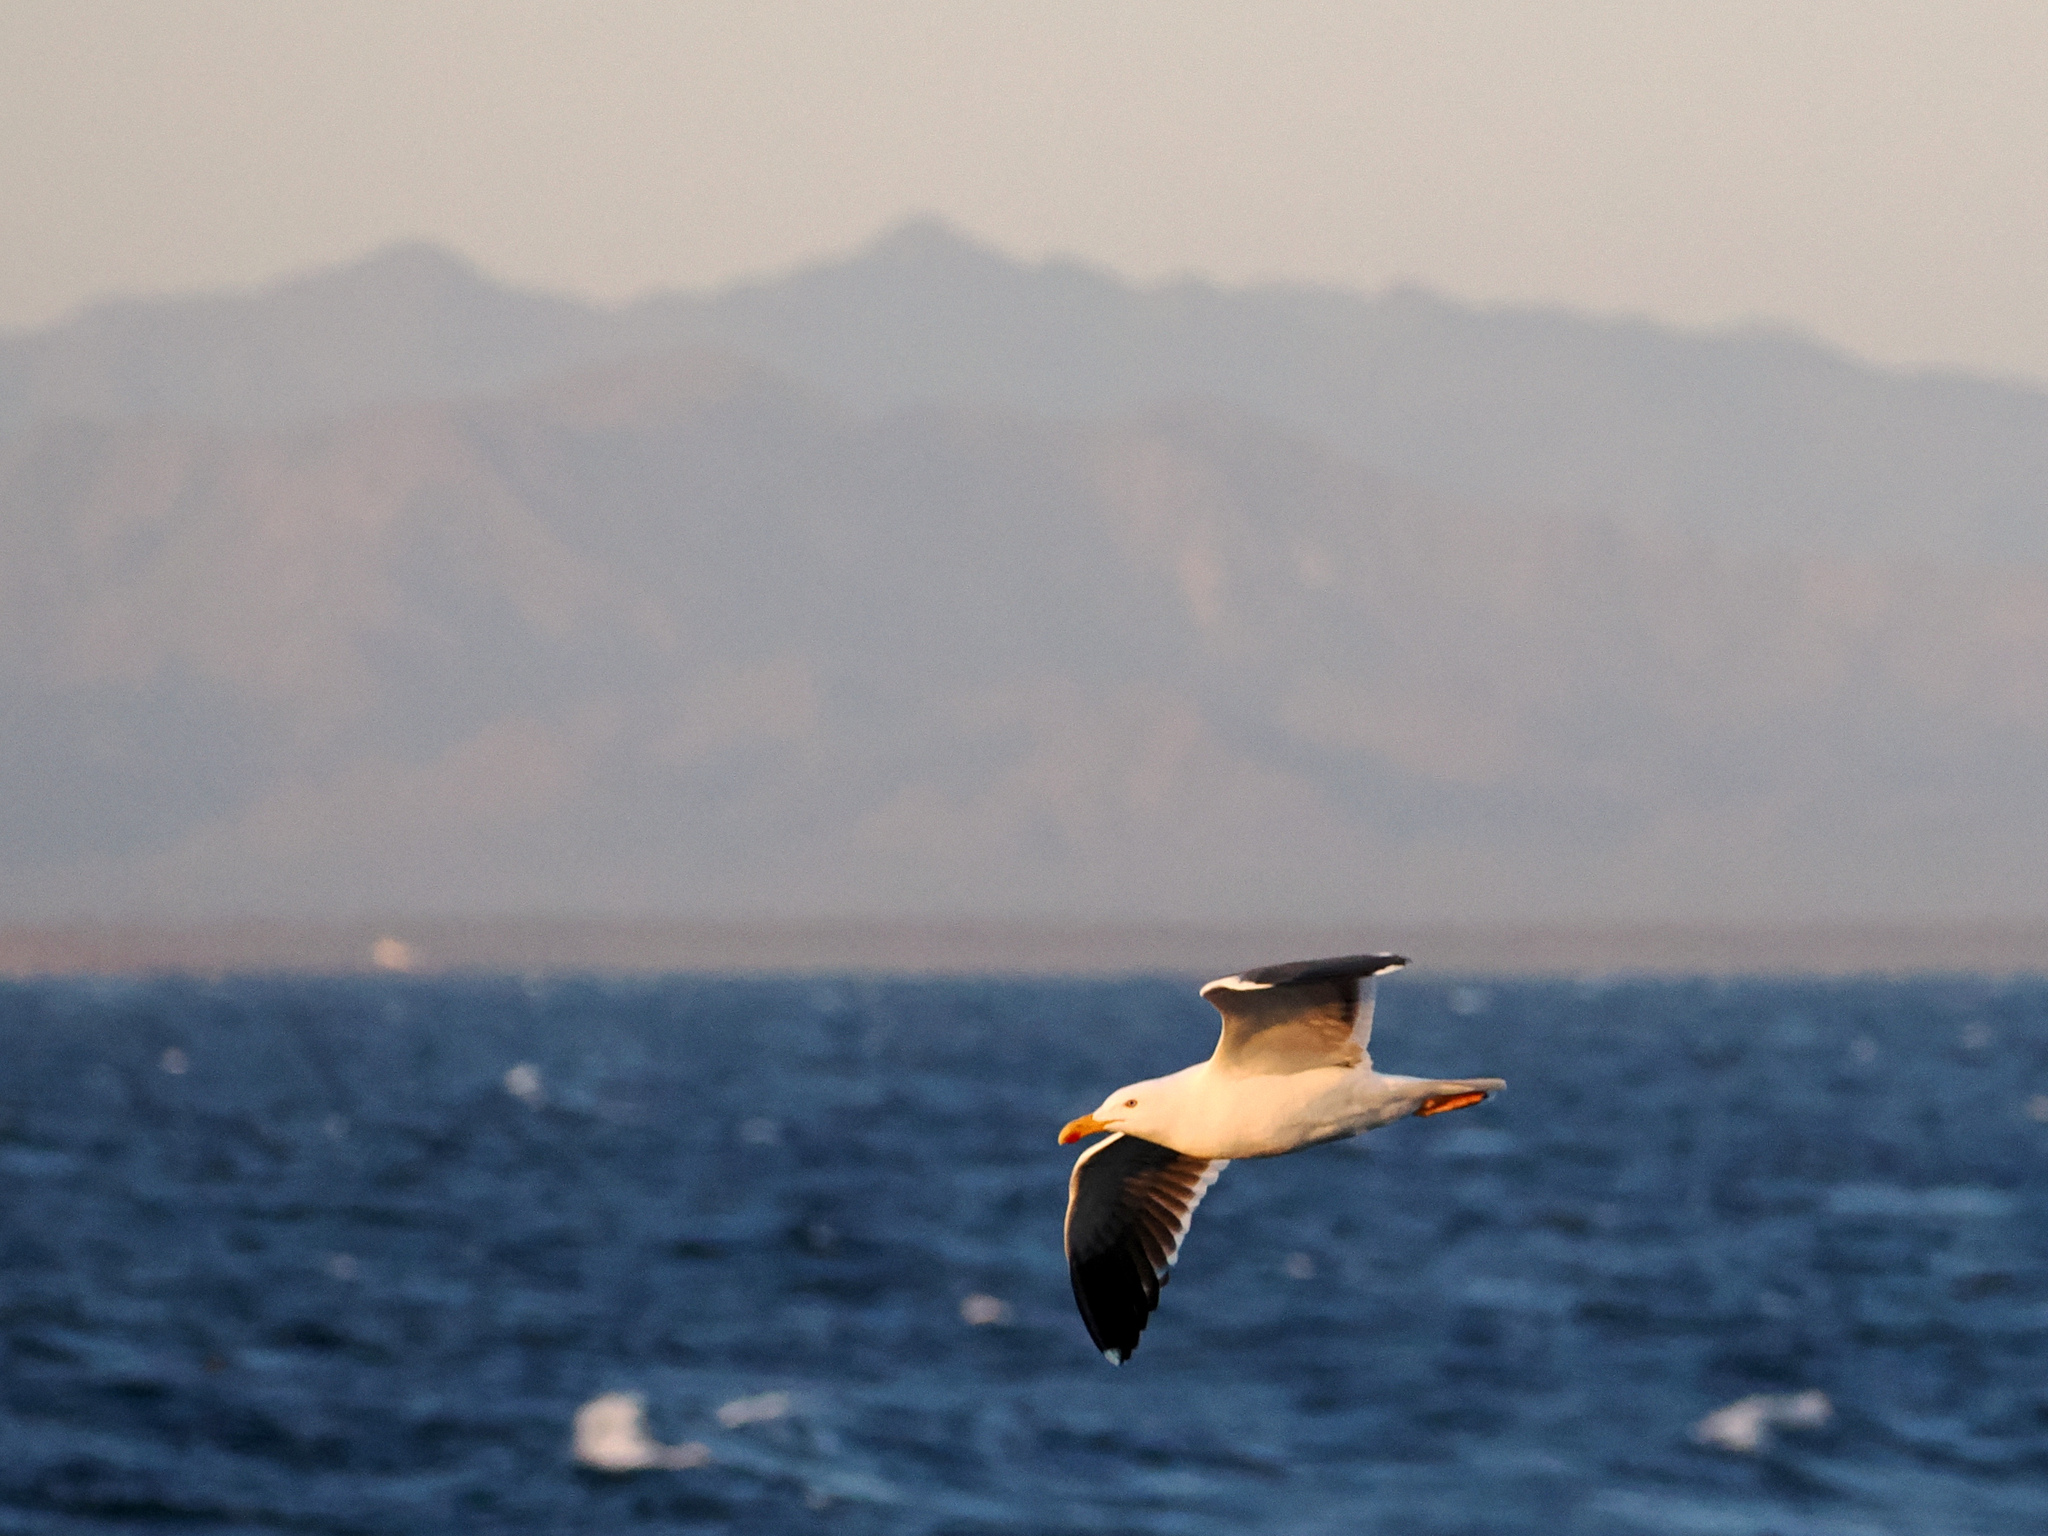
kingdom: Animalia
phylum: Chordata
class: Aves
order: Charadriiformes
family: Laridae
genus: Larus
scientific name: Larus livens
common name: Yellow-footed gull
